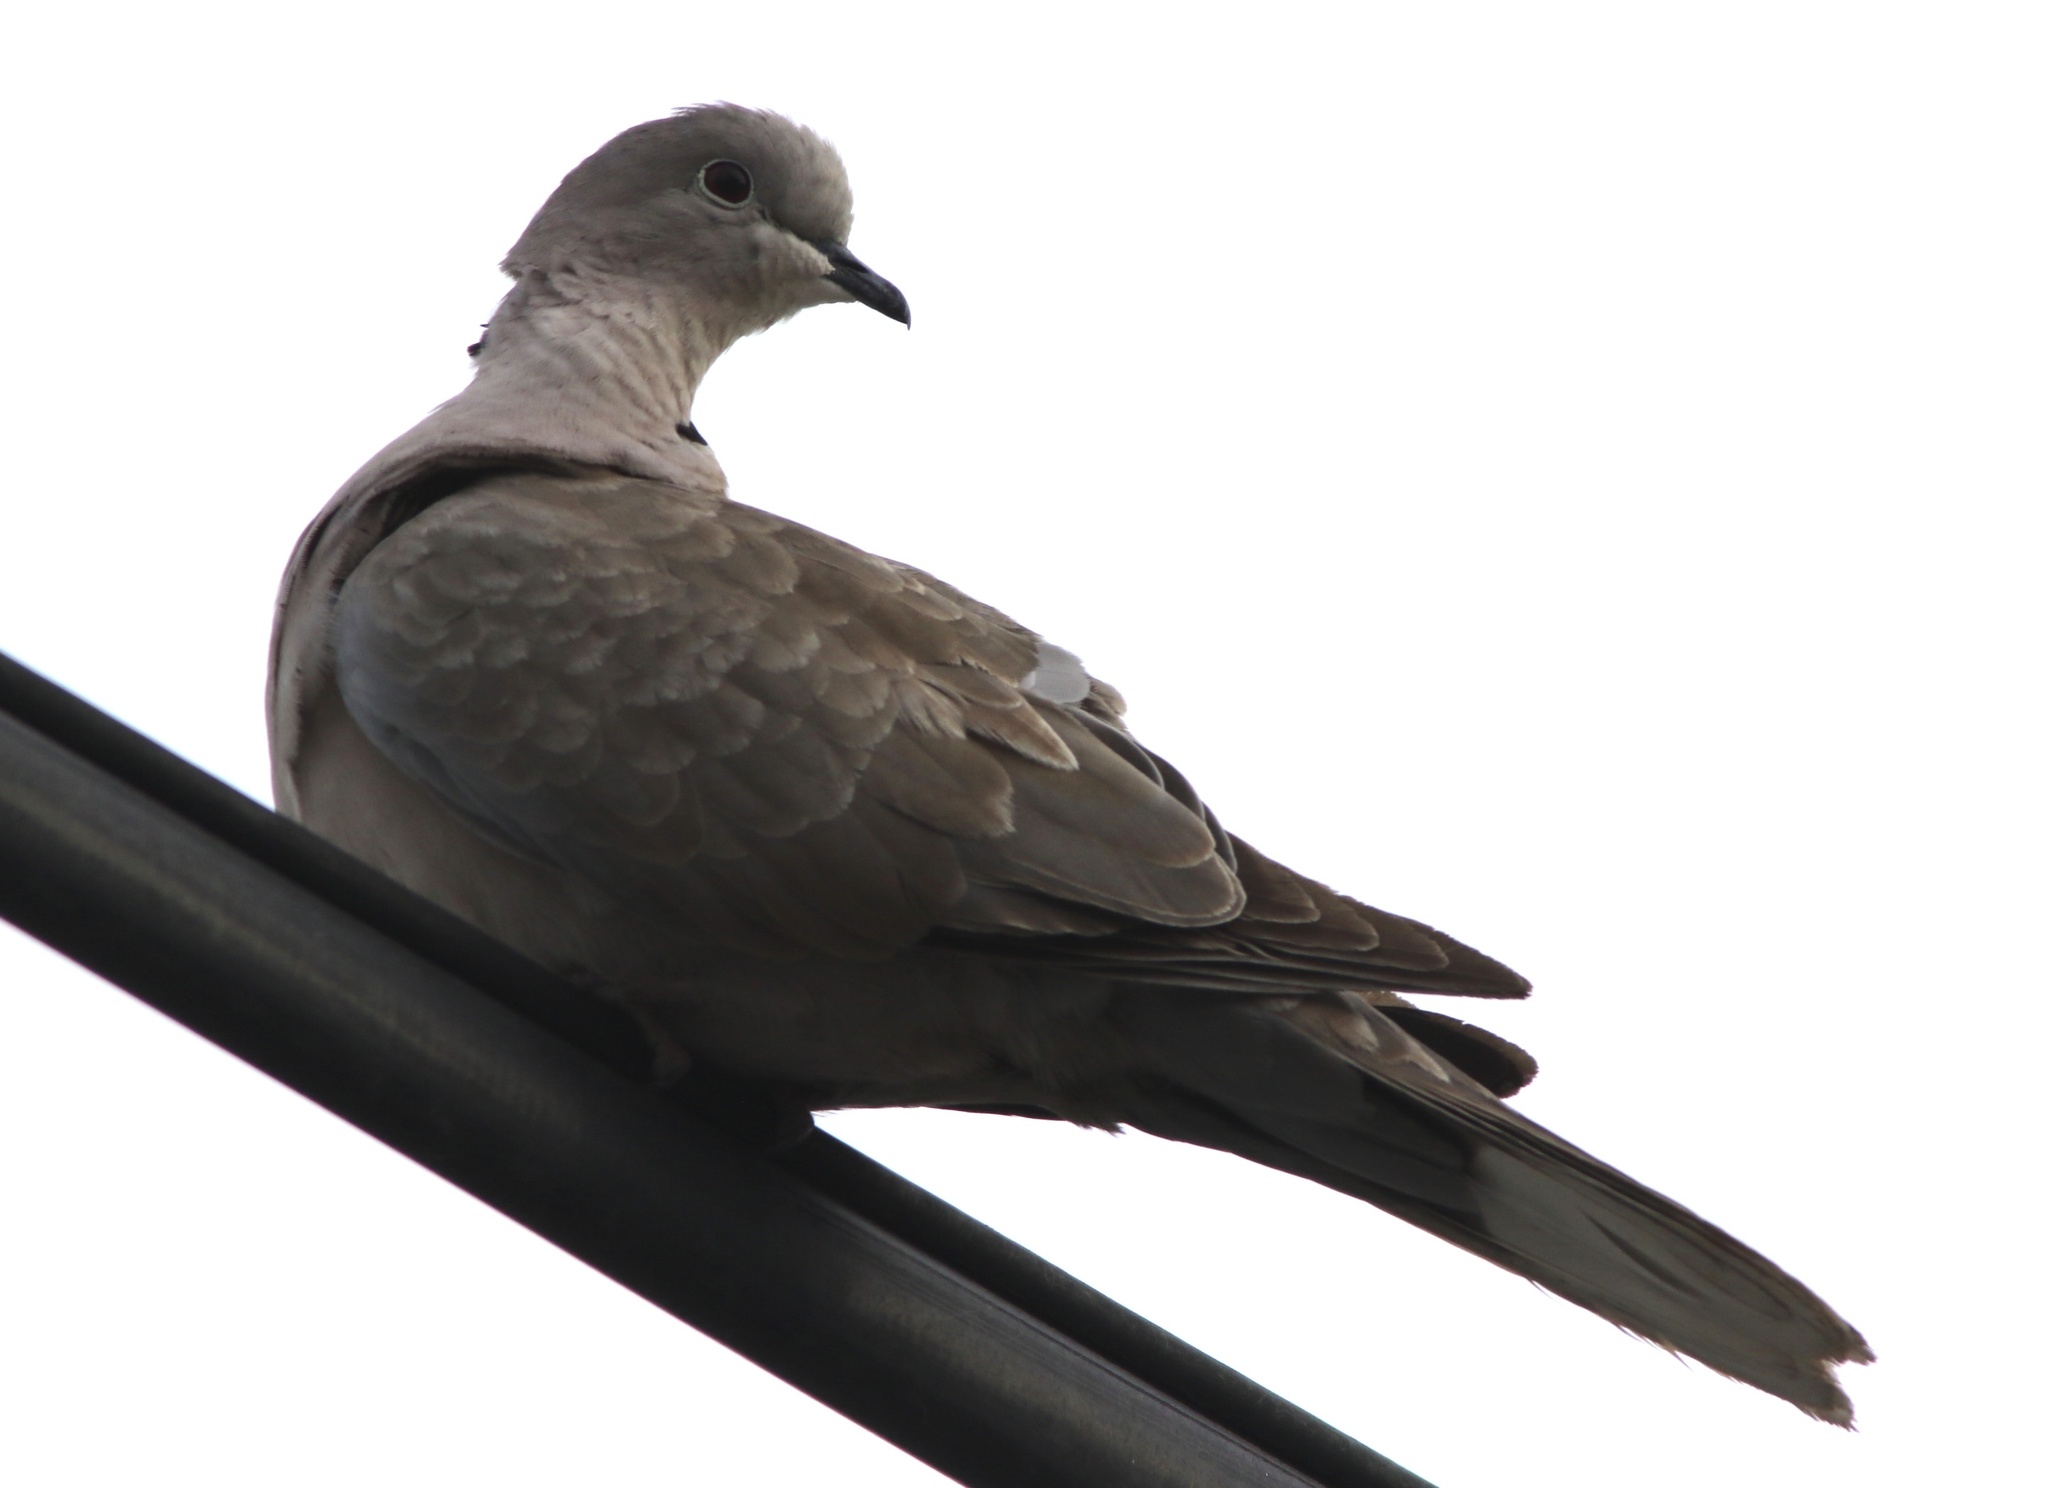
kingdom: Animalia
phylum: Chordata
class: Aves
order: Columbiformes
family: Columbidae
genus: Streptopelia
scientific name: Streptopelia decaocto
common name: Eurasian collared dove
